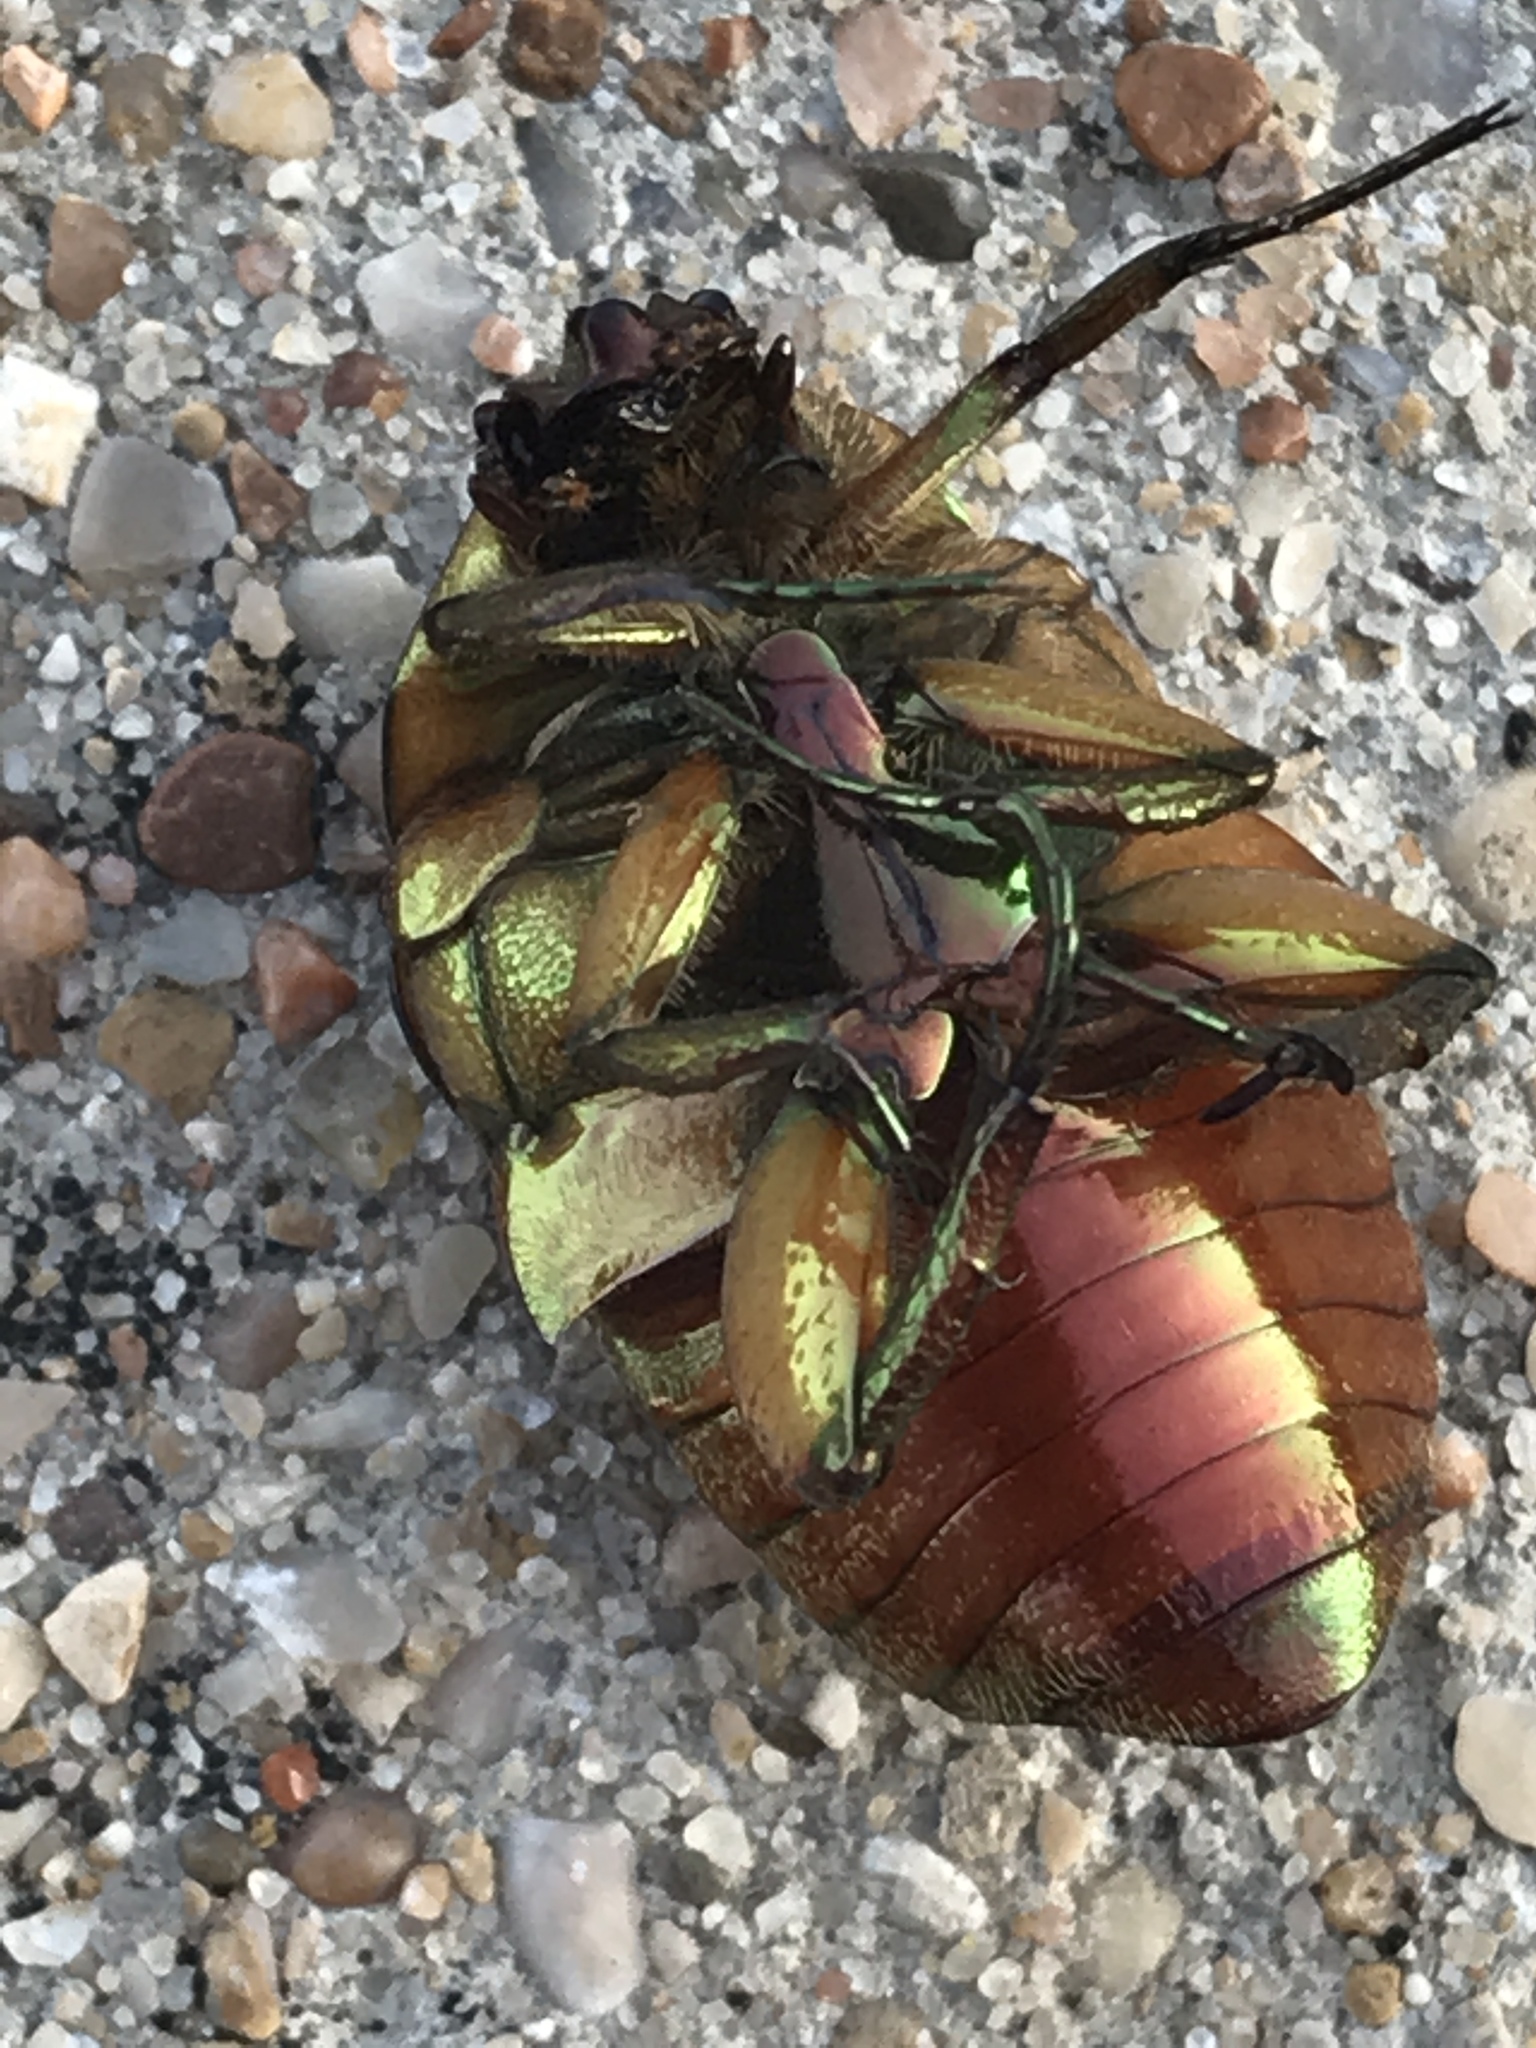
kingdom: Animalia
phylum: Arthropoda
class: Insecta
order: Coleoptera
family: Scarabaeidae
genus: Cotinis
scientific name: Cotinis nitida
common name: Common green june beetle
